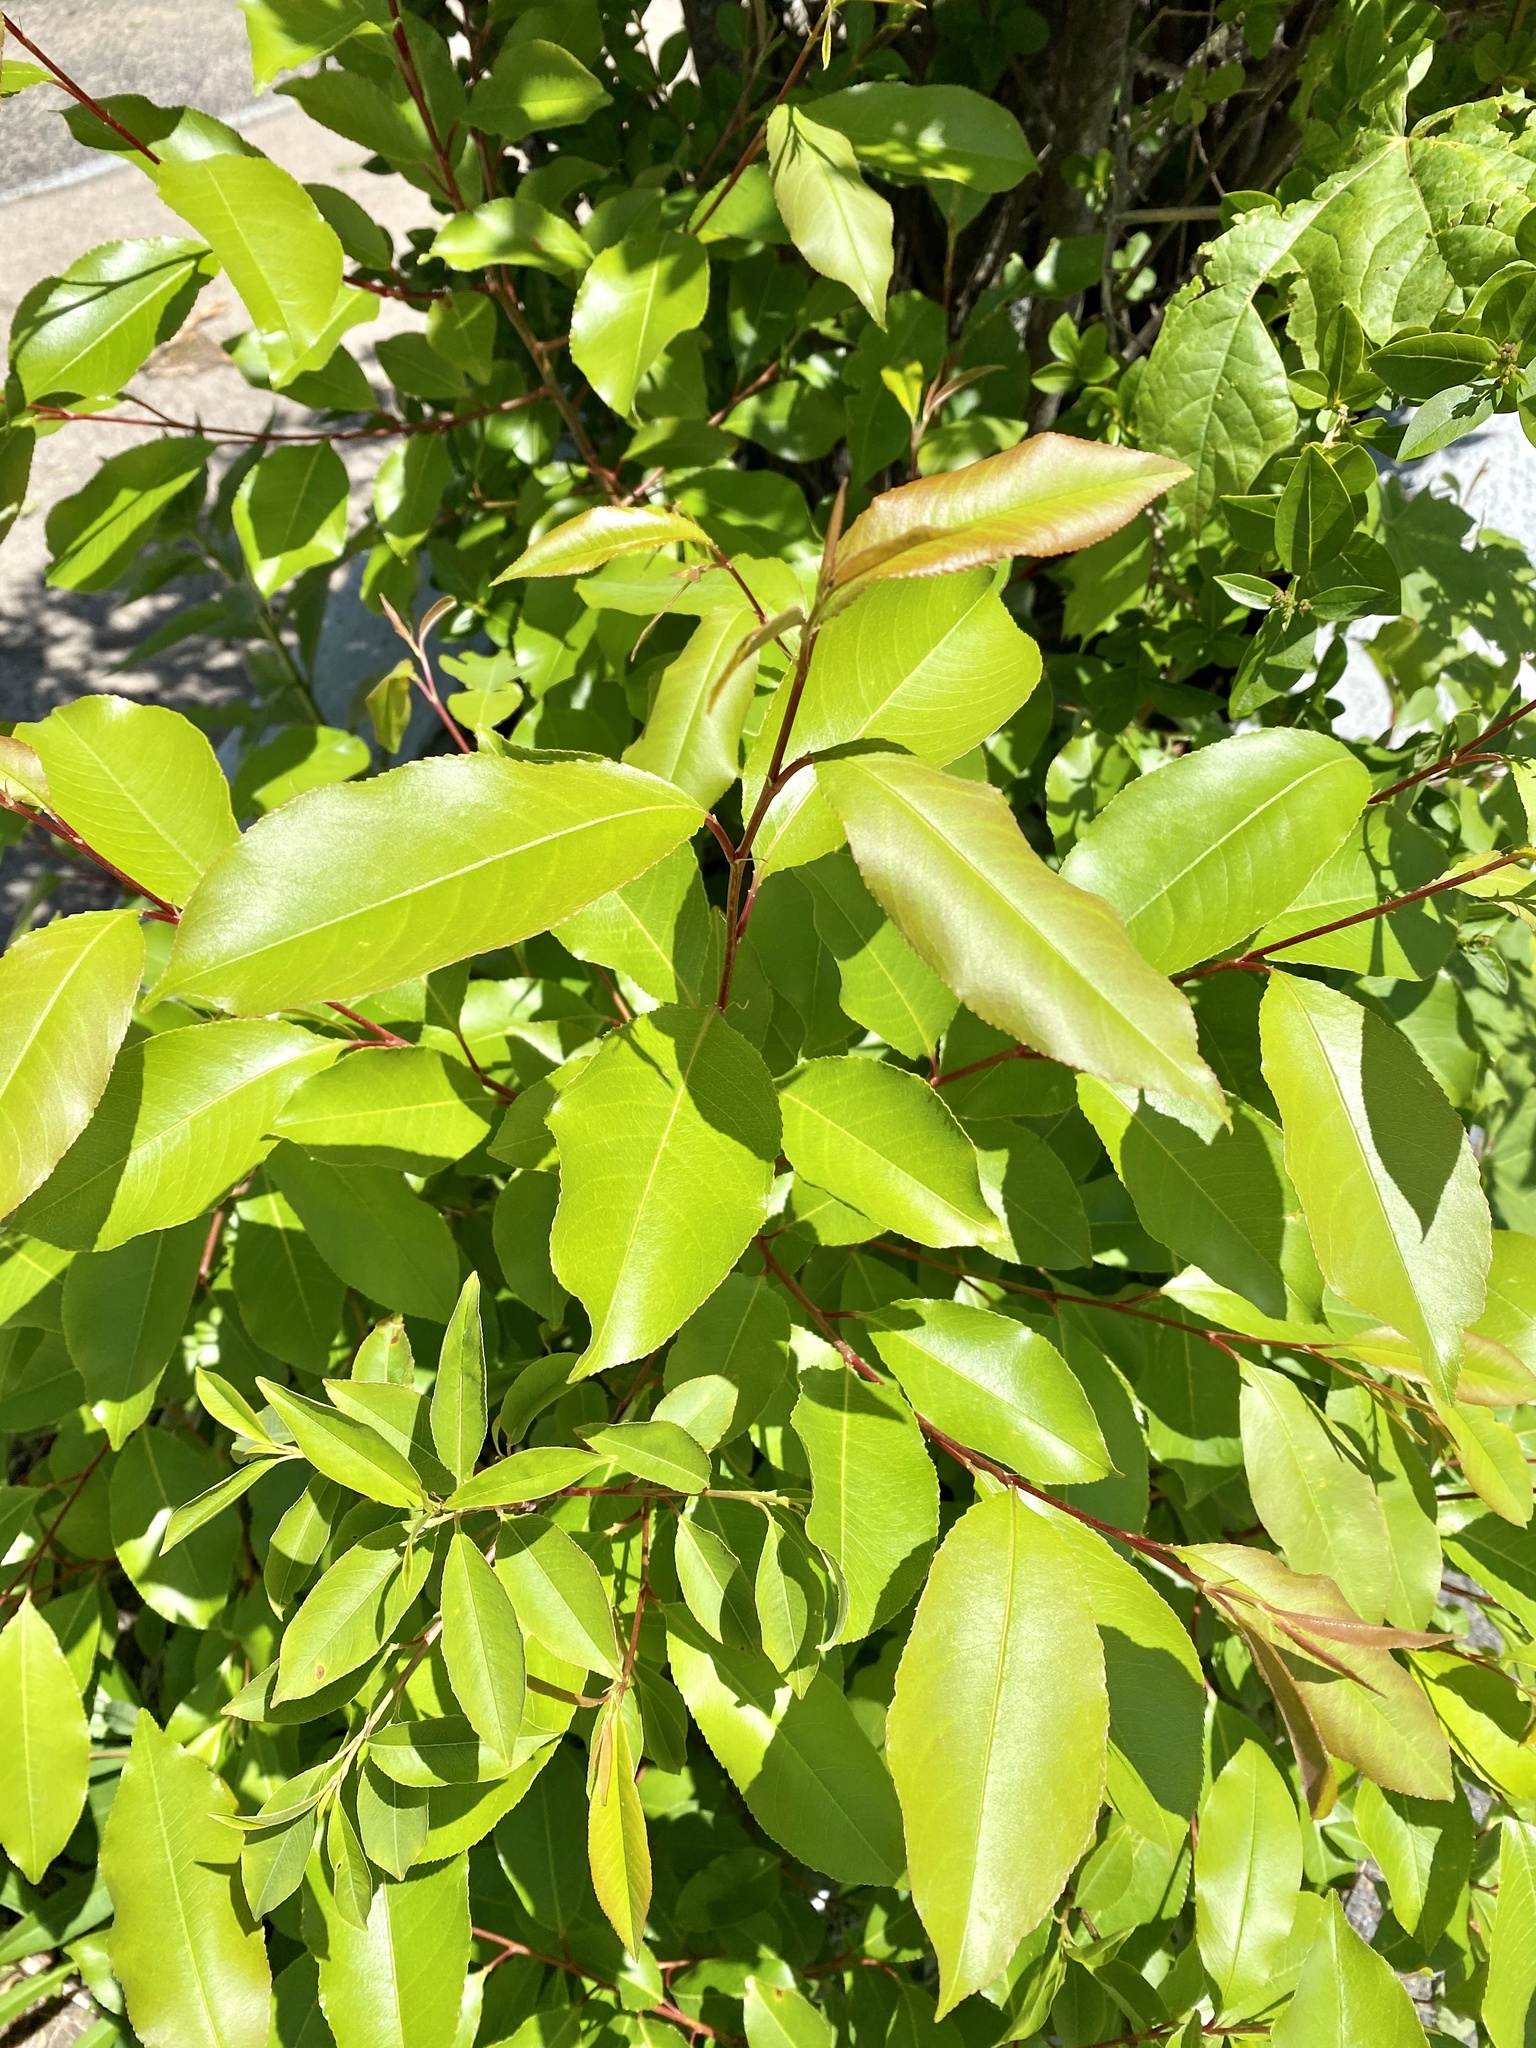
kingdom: Plantae
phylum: Tracheophyta
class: Magnoliopsida
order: Rosales
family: Rosaceae
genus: Prunus
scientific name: Prunus serotina
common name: Black cherry
